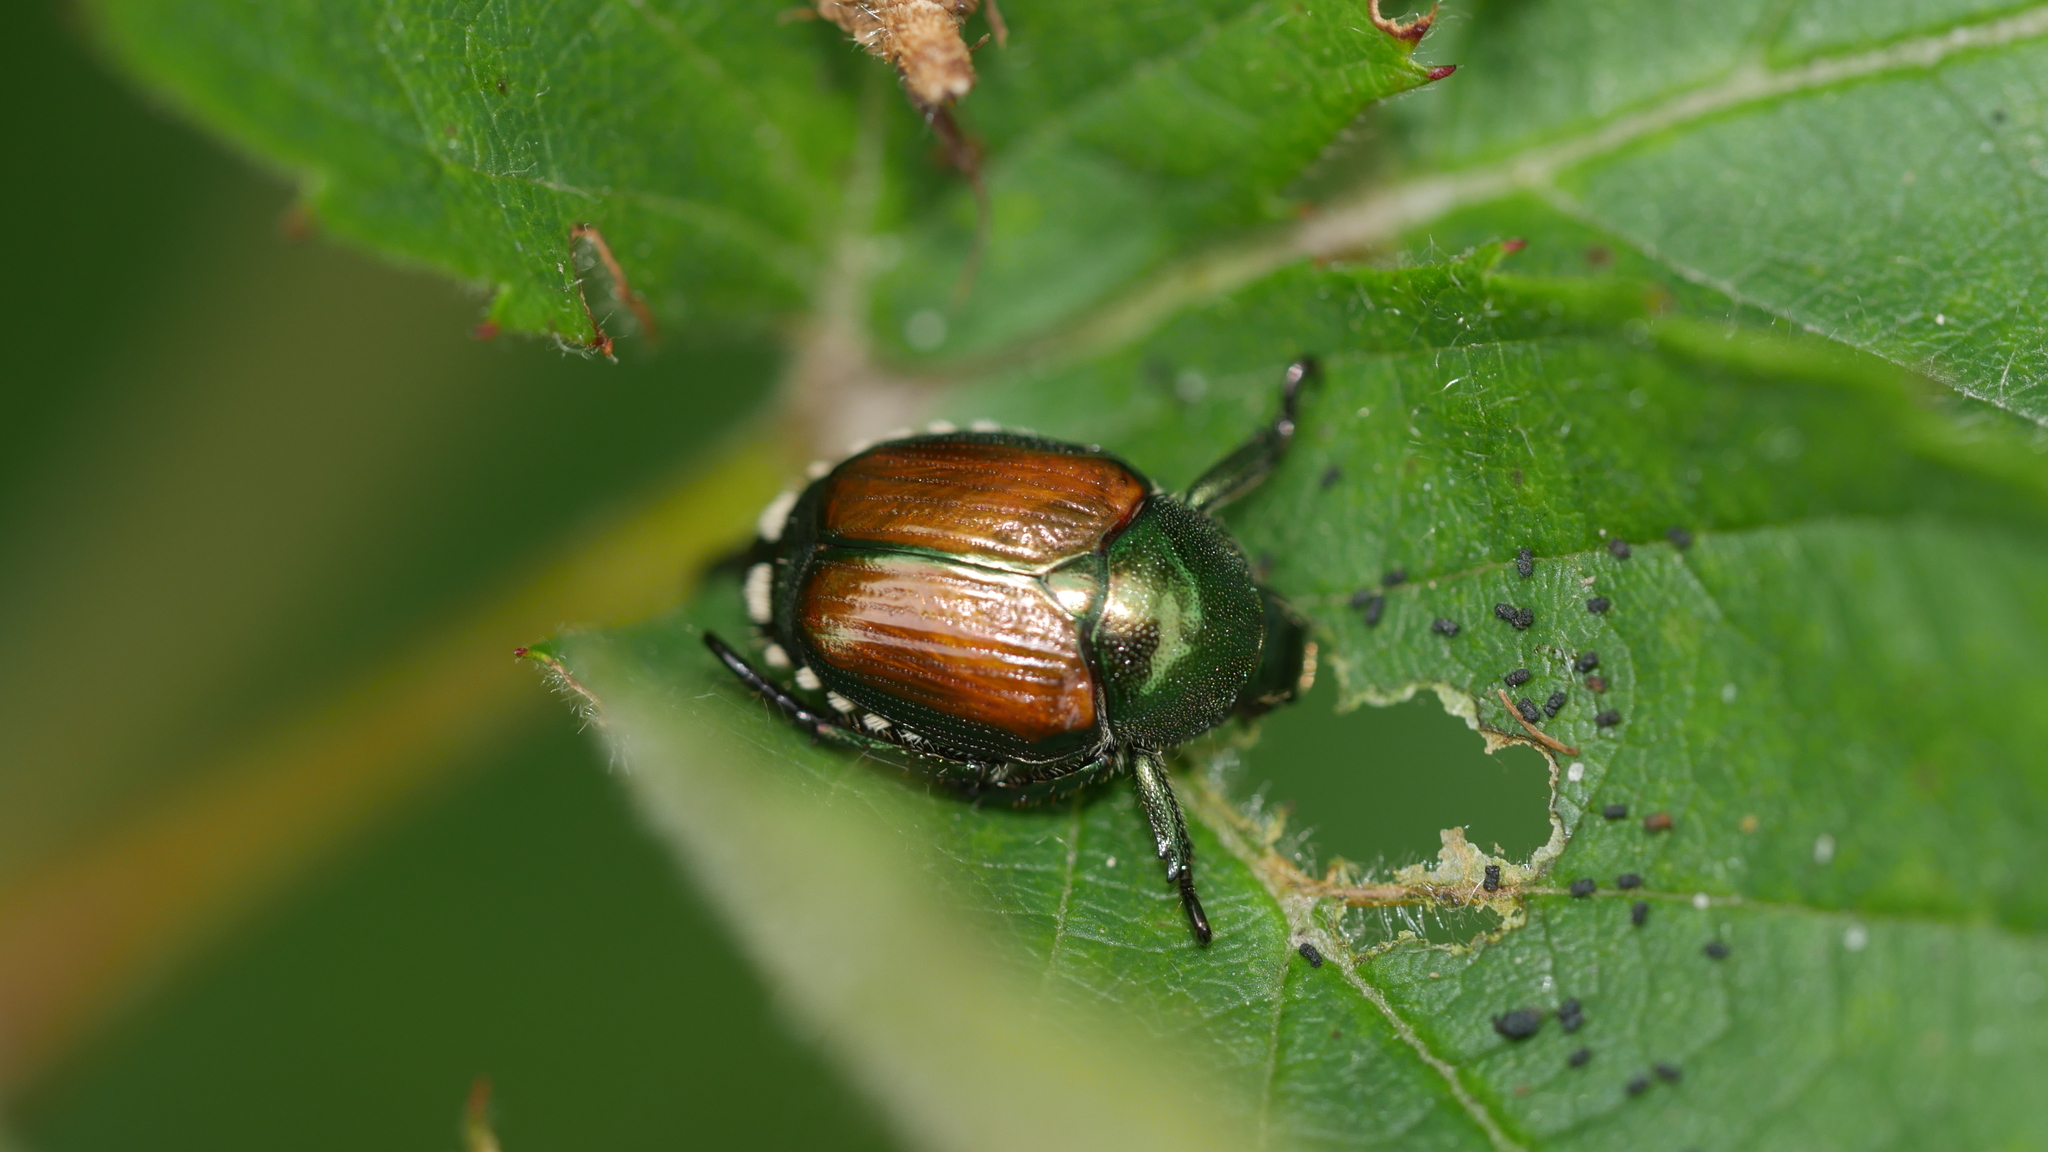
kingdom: Animalia
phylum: Arthropoda
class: Insecta
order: Coleoptera
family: Scarabaeidae
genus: Popillia
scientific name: Popillia japonica
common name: Japanese beetle
